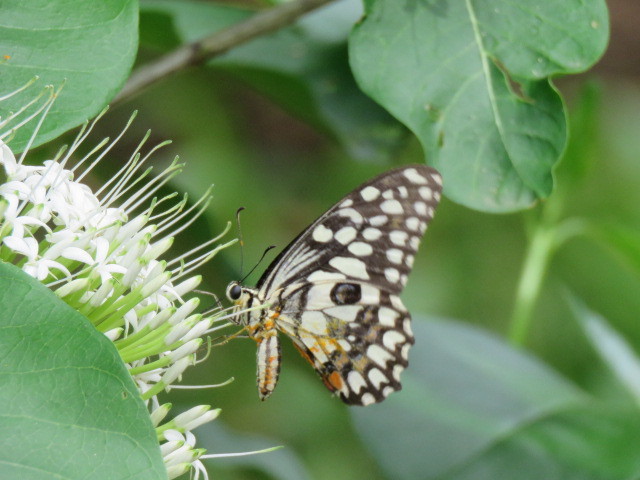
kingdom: Animalia
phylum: Arthropoda
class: Insecta
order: Lepidoptera
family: Papilionidae
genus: Papilio
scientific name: Papilio demoleus
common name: Lime butterfly
